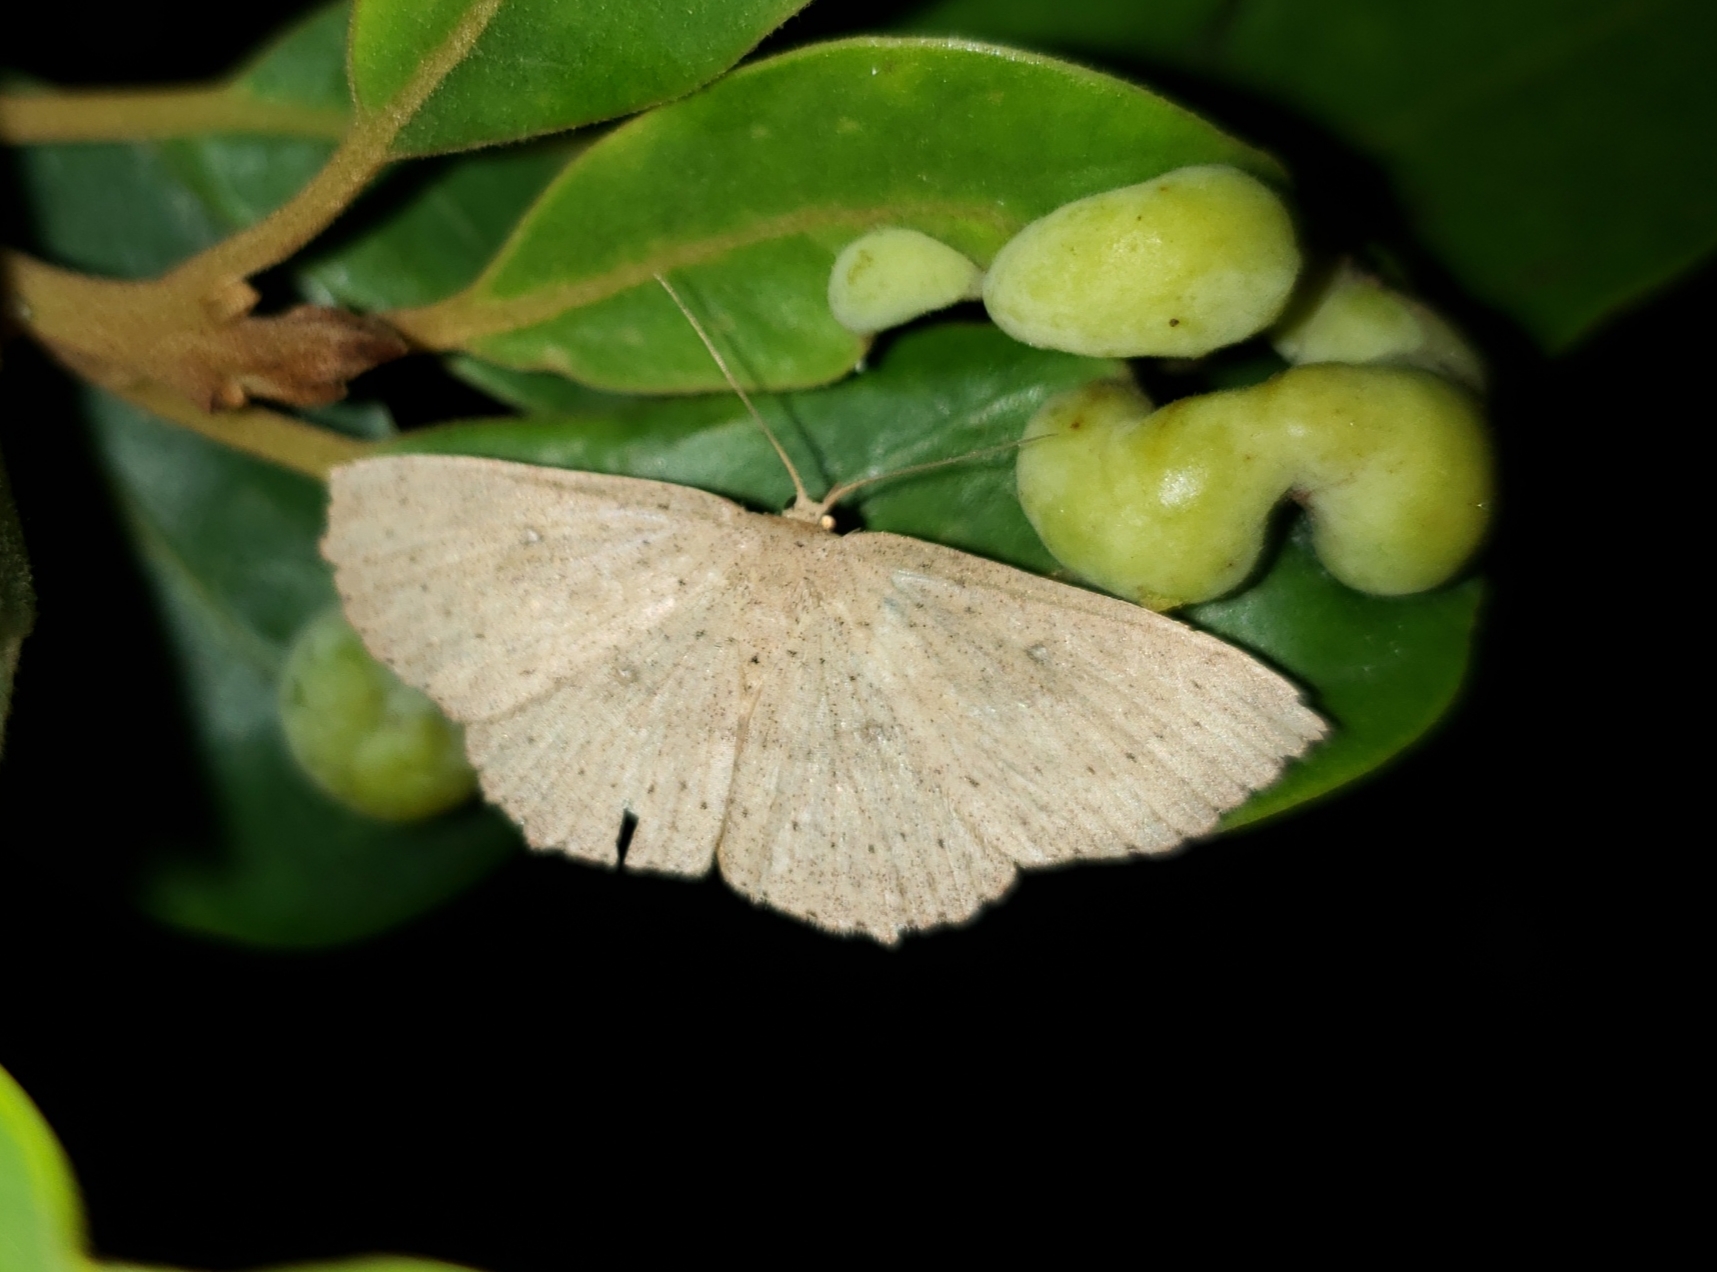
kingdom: Animalia
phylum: Arthropoda
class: Insecta
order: Lepidoptera
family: Geometridae
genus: Cyclophora
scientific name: Cyclophora myrtaria
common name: Waxmyrtle wave moth
